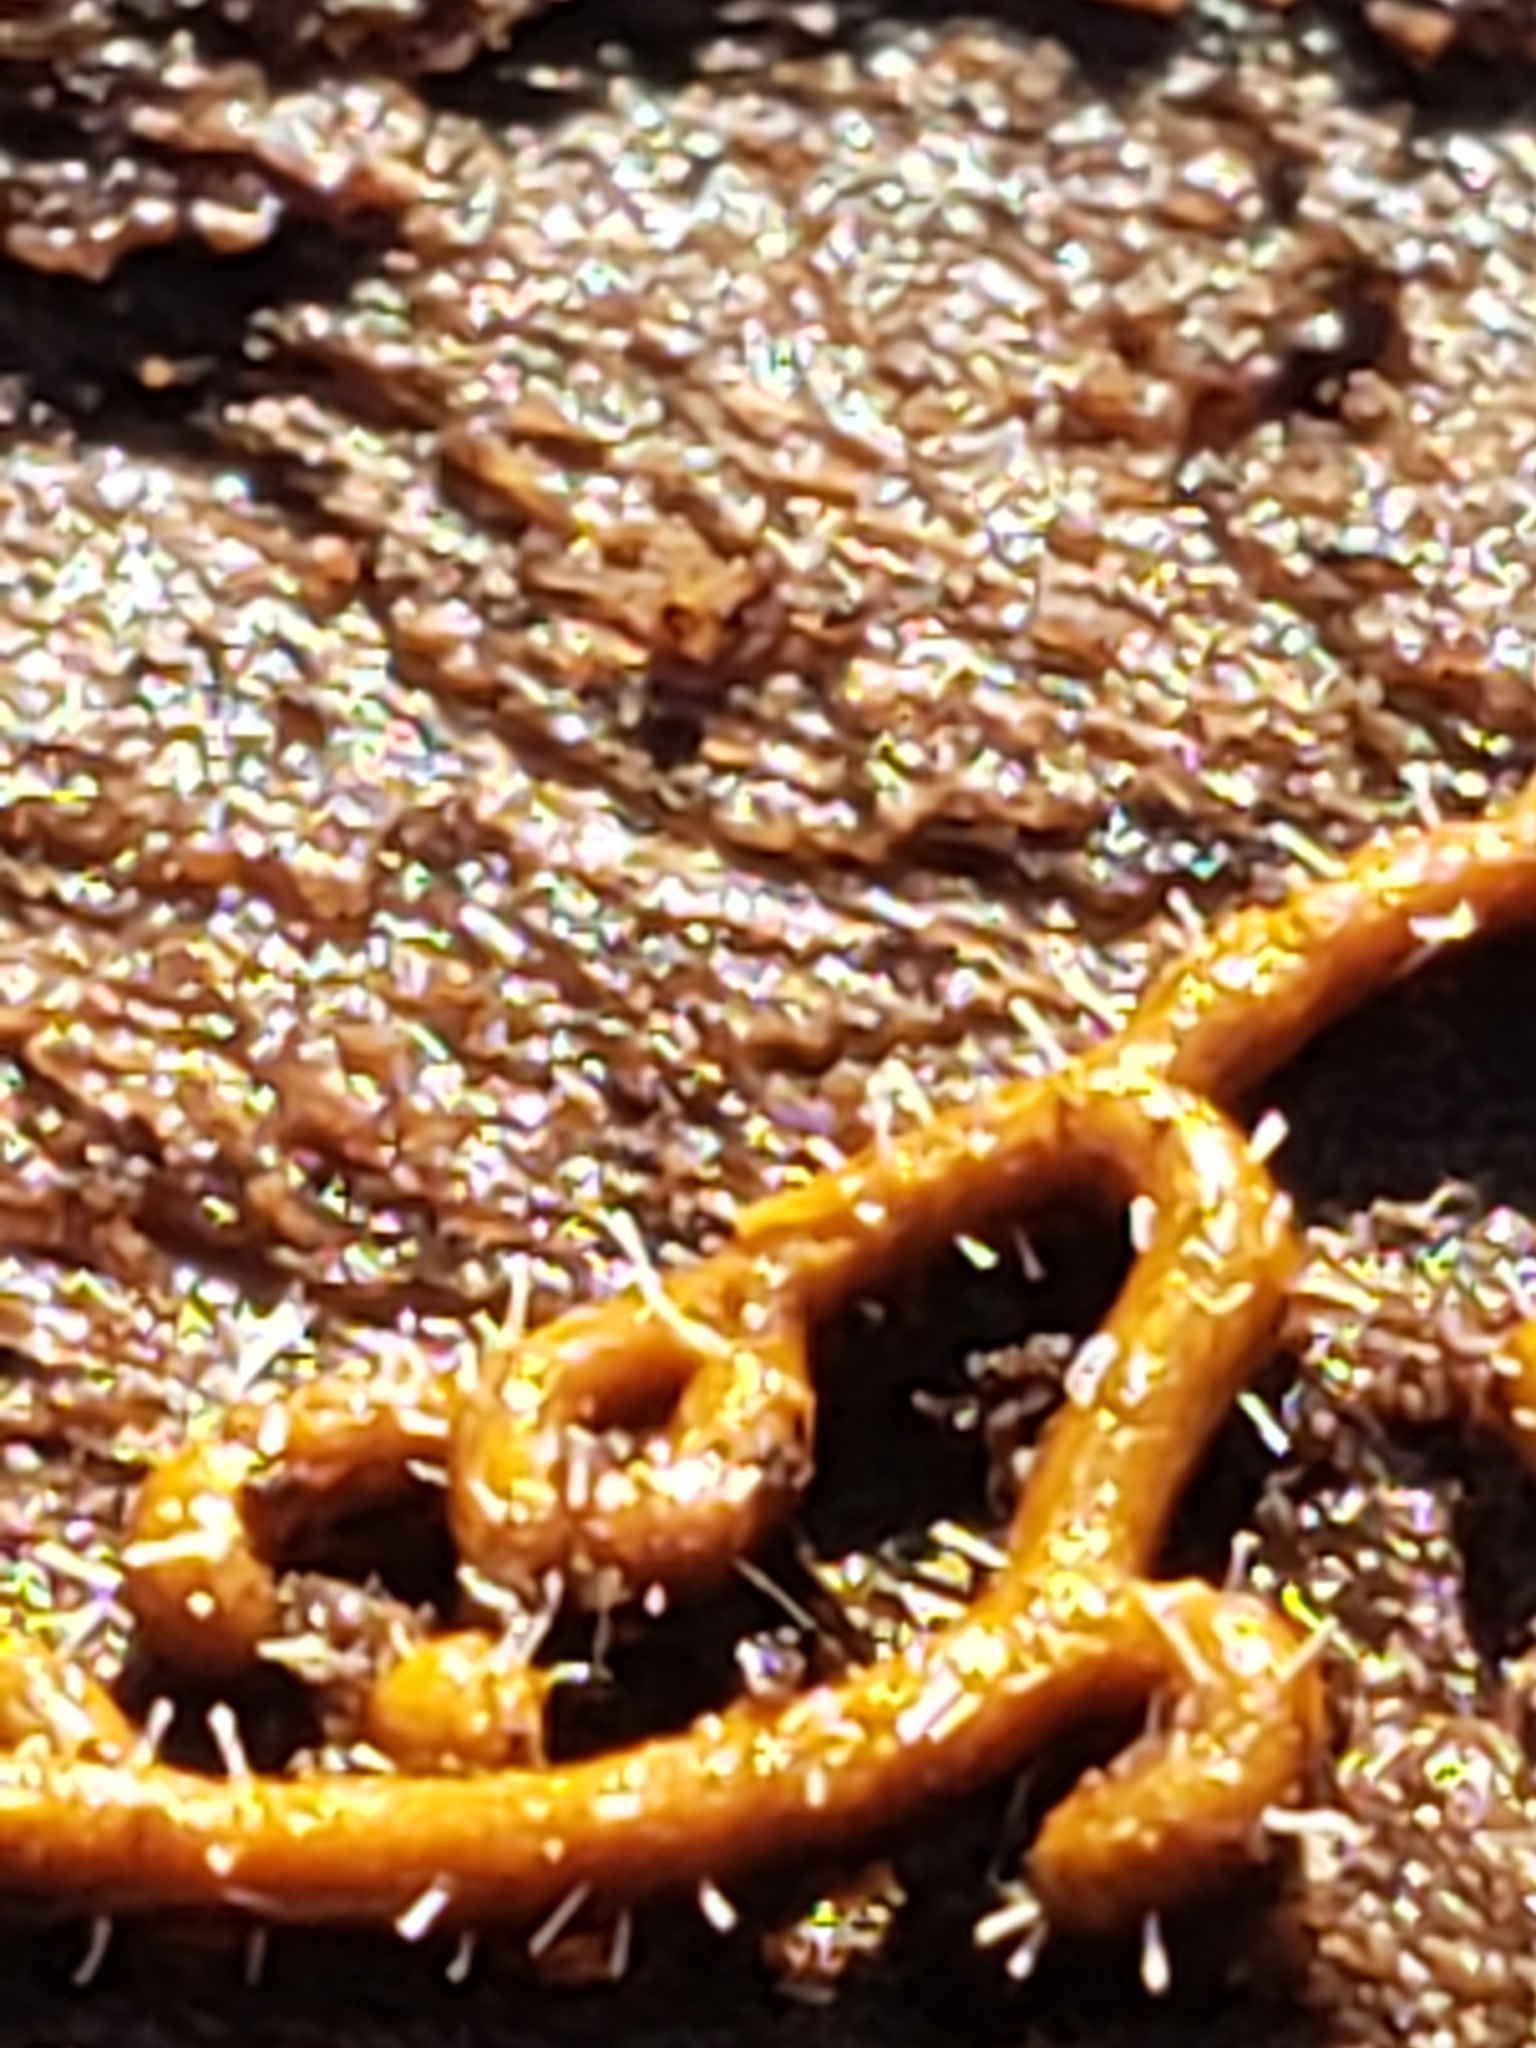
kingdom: Protozoa
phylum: Mycetozoa
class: Myxomycetes
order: Trichiales
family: Arcyriaceae
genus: Hemitrichia
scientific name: Hemitrichia serpula
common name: Pretzel slime mold
